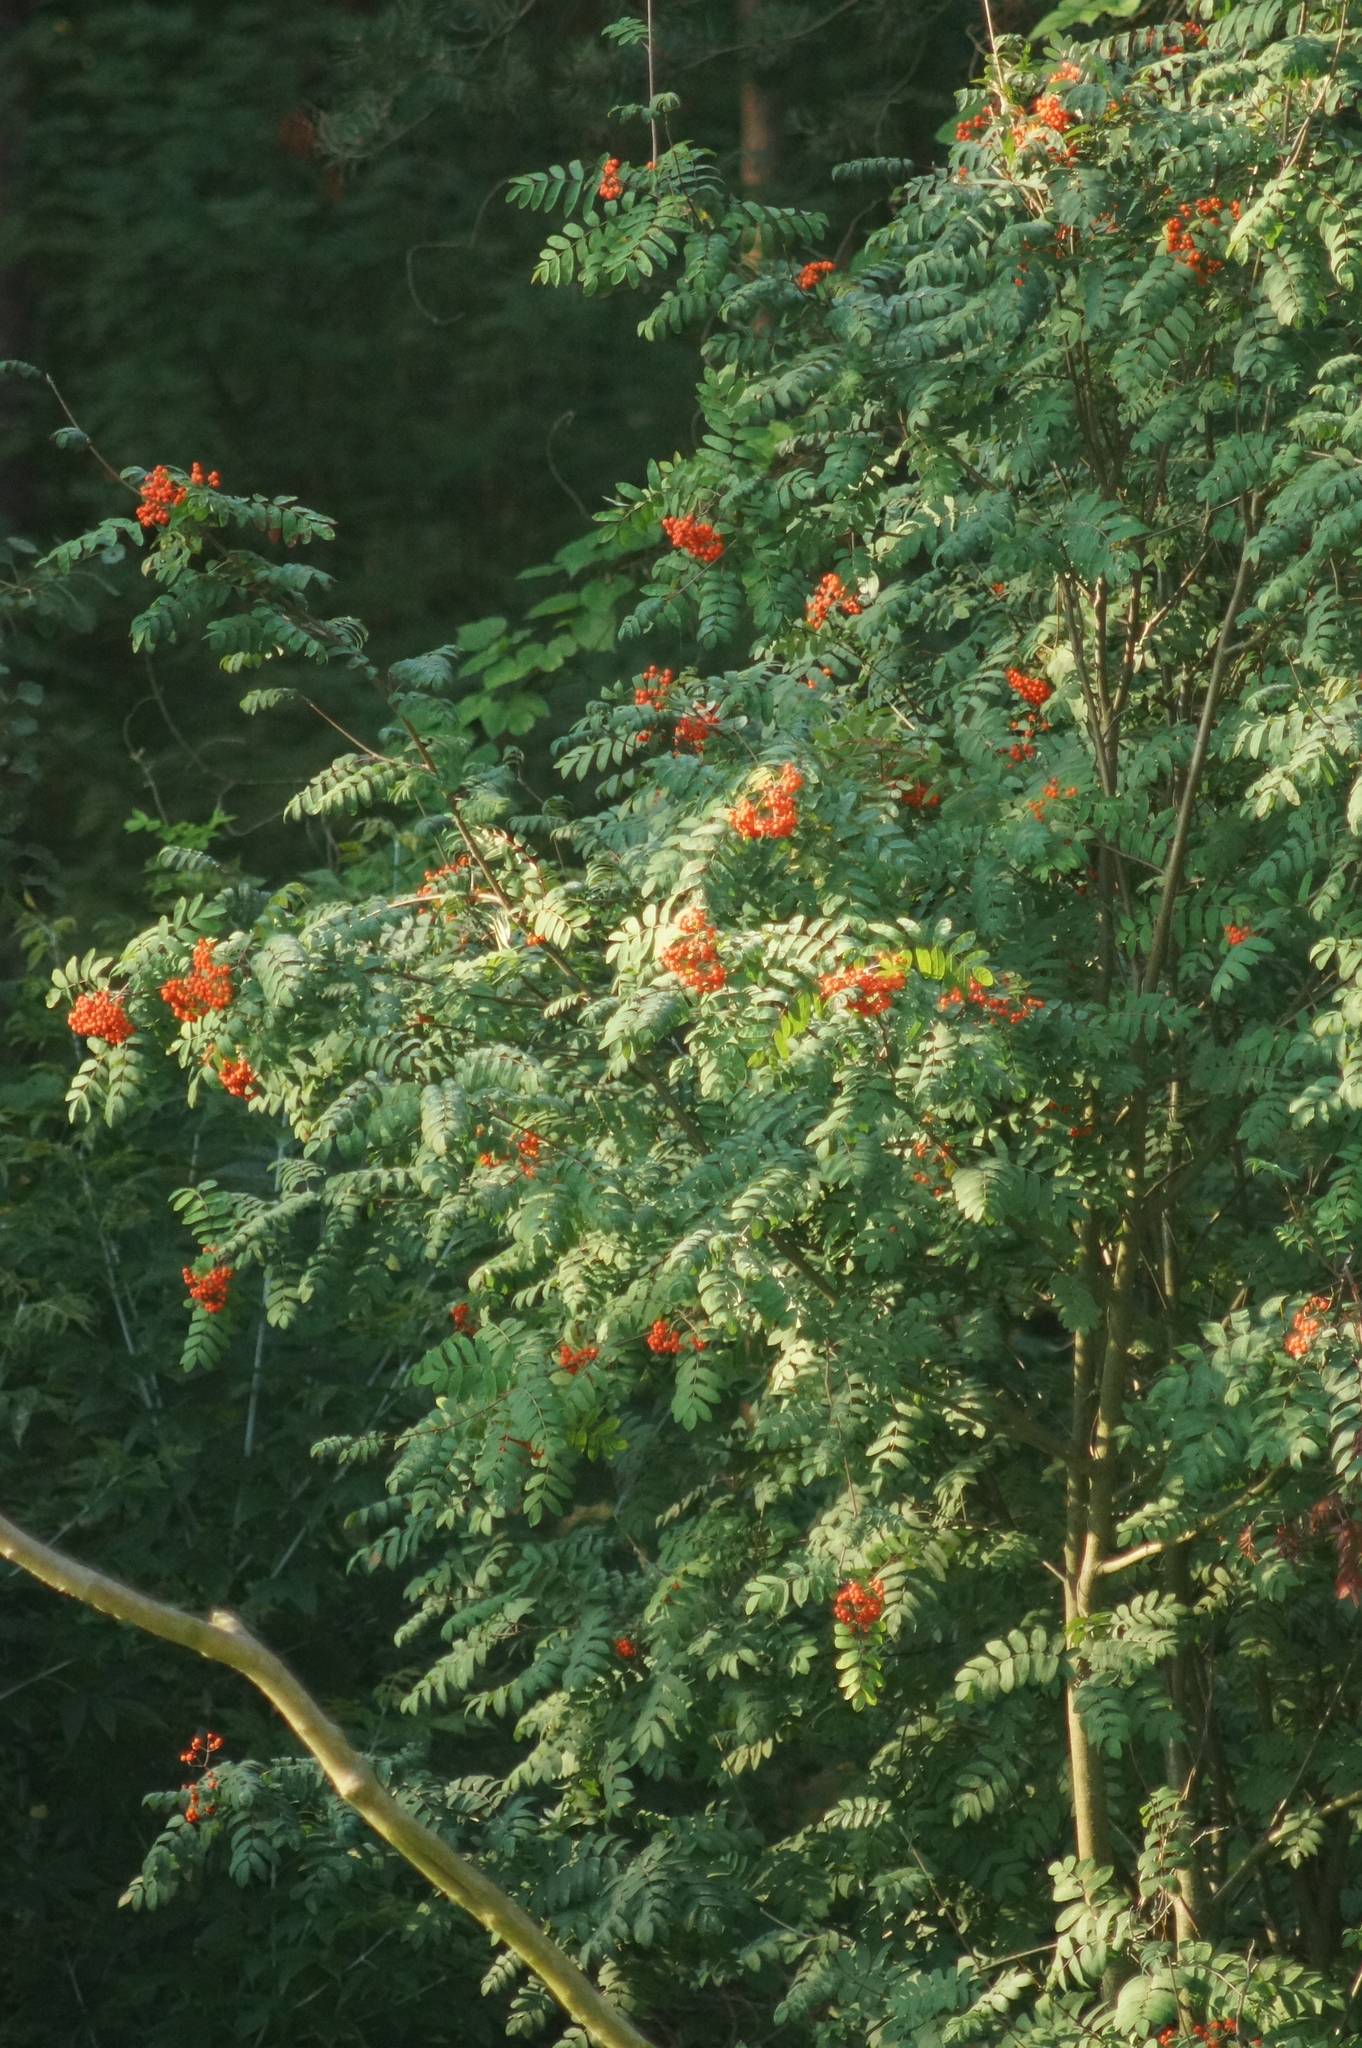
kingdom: Plantae
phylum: Tracheophyta
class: Magnoliopsida
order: Rosales
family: Rosaceae
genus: Sorbus
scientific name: Sorbus aucuparia
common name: Rowan
